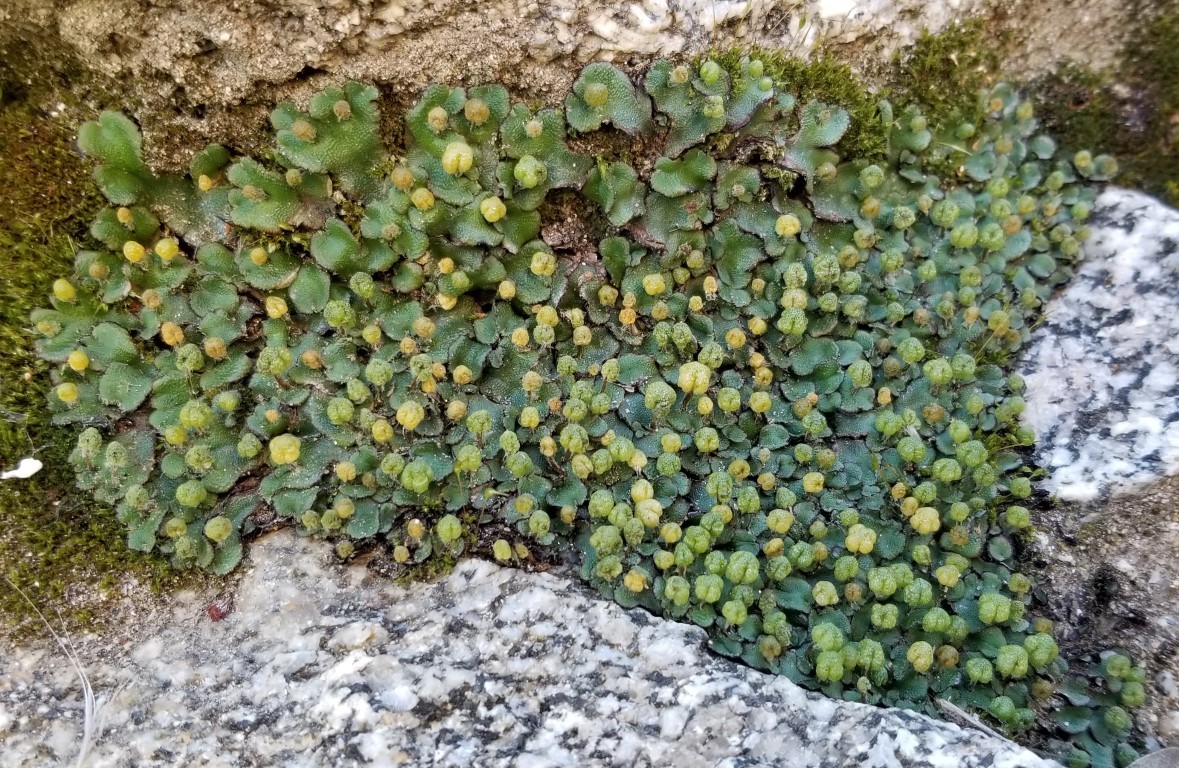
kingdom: Plantae
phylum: Marchantiophyta
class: Marchantiopsida
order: Marchantiales
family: Aytoniaceae
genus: Asterella
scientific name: Asterella californica
